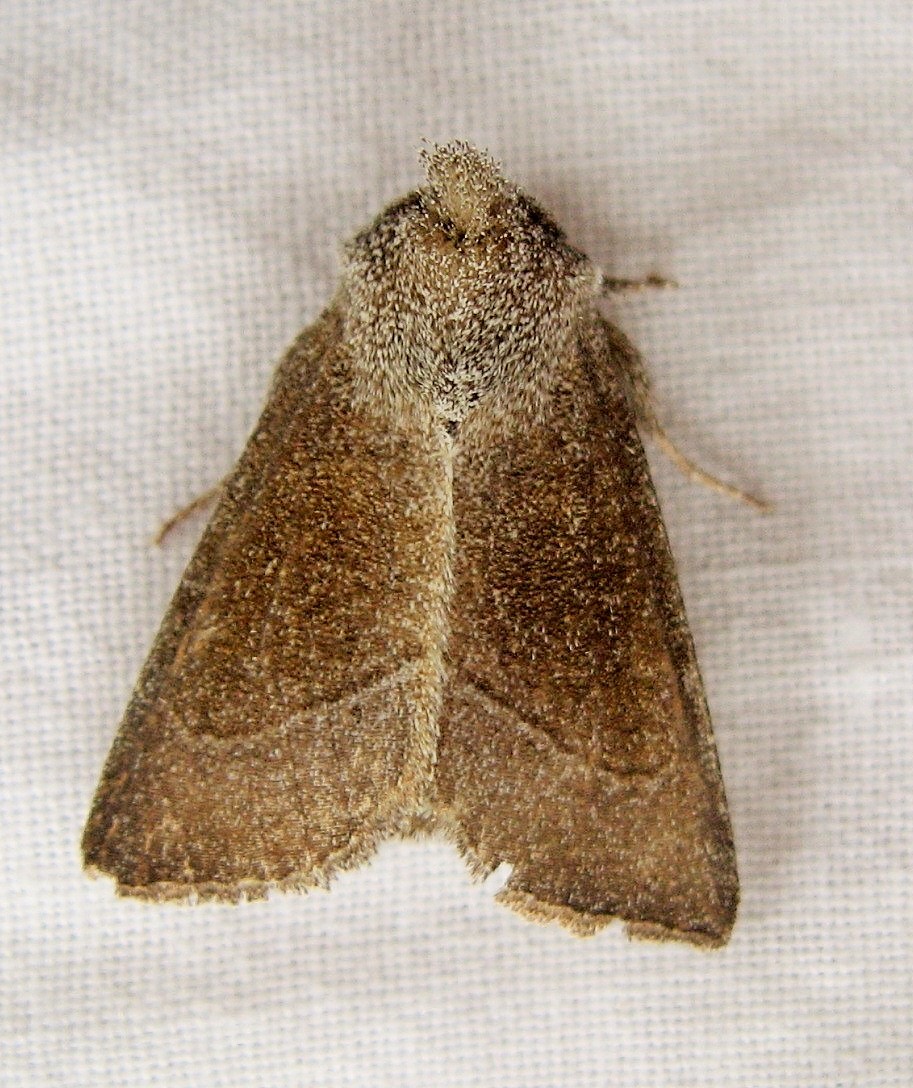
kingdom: Animalia
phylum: Arthropoda
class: Insecta
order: Lepidoptera
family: Noctuidae
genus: Papaipema
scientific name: Papaipema beeriana
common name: Blazing star stem borer
